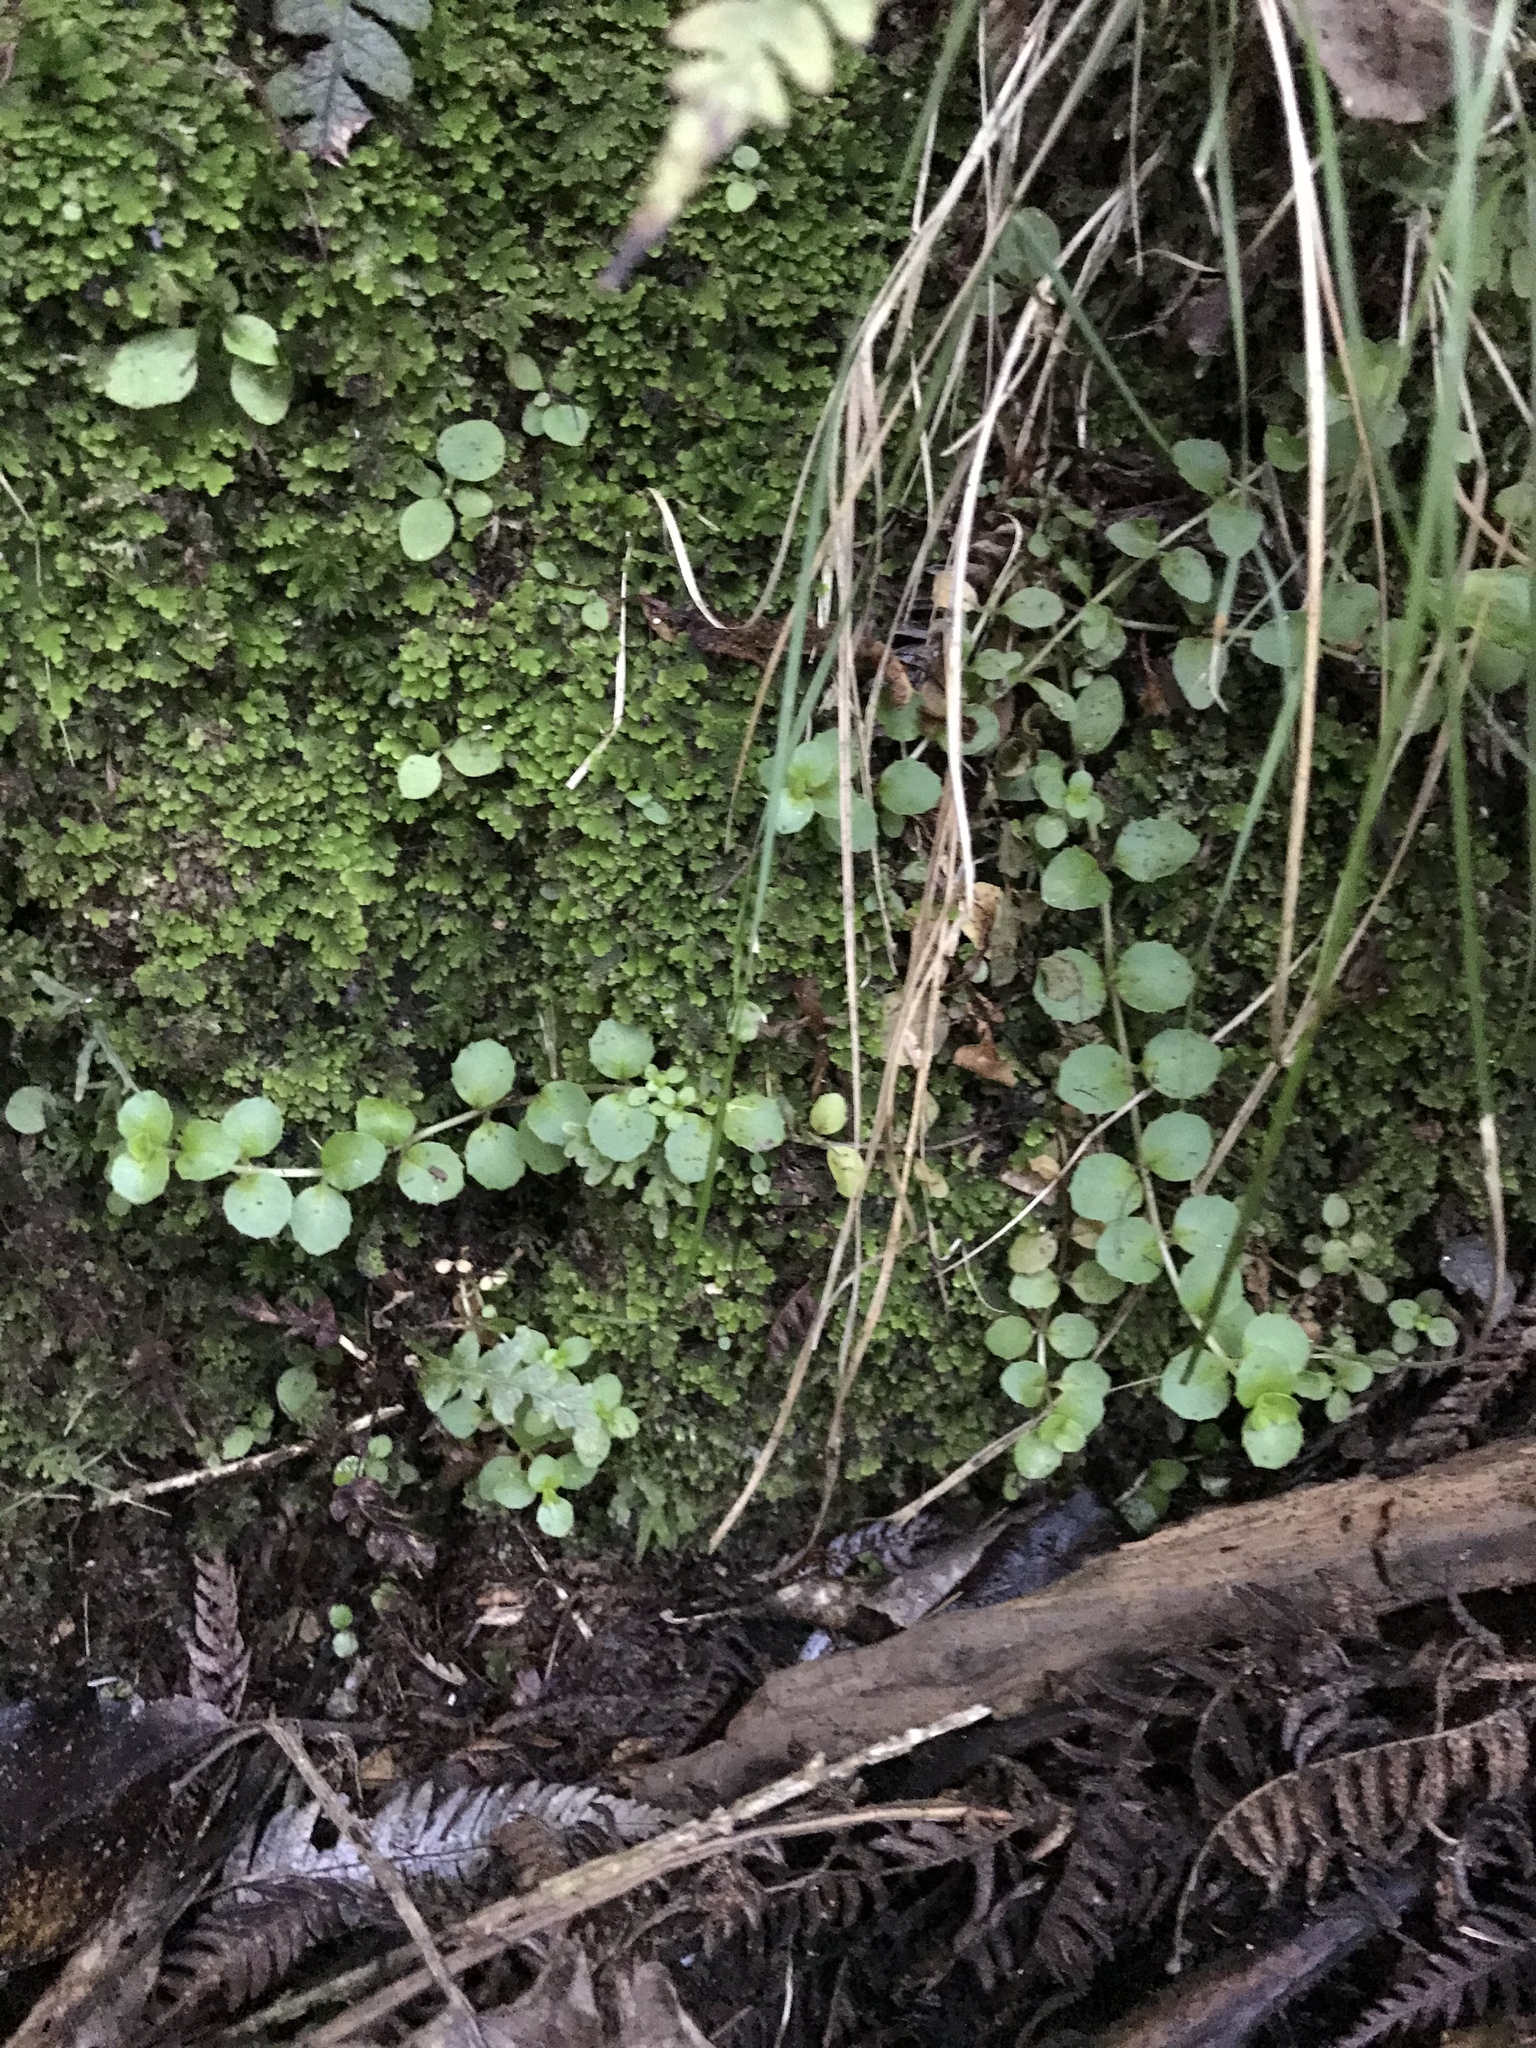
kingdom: Plantae
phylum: Tracheophyta
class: Magnoliopsida
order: Asterales
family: Campanulaceae
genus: Lobelia
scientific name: Lobelia angulata
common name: Lawn lobelia
